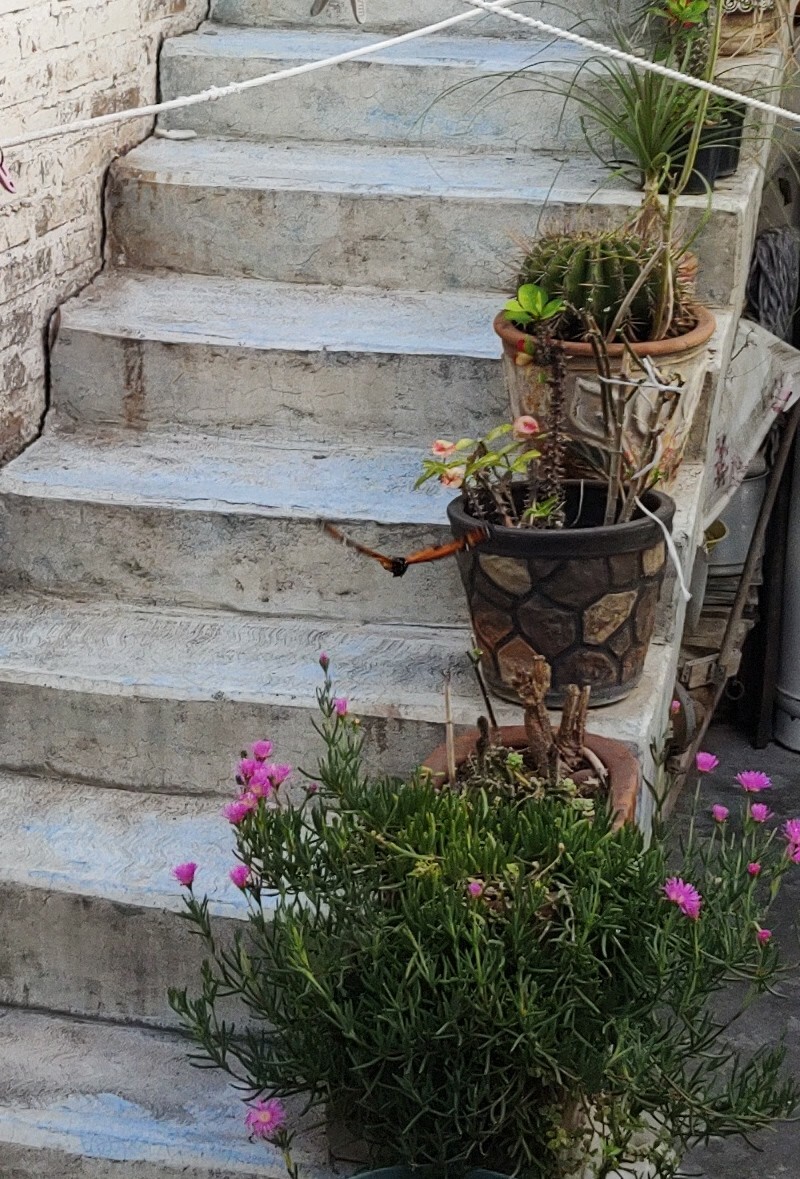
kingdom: Animalia
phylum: Arthropoda
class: Insecta
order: Lepidoptera
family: Nymphalidae
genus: Danaus
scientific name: Danaus plexippus
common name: Monarch
